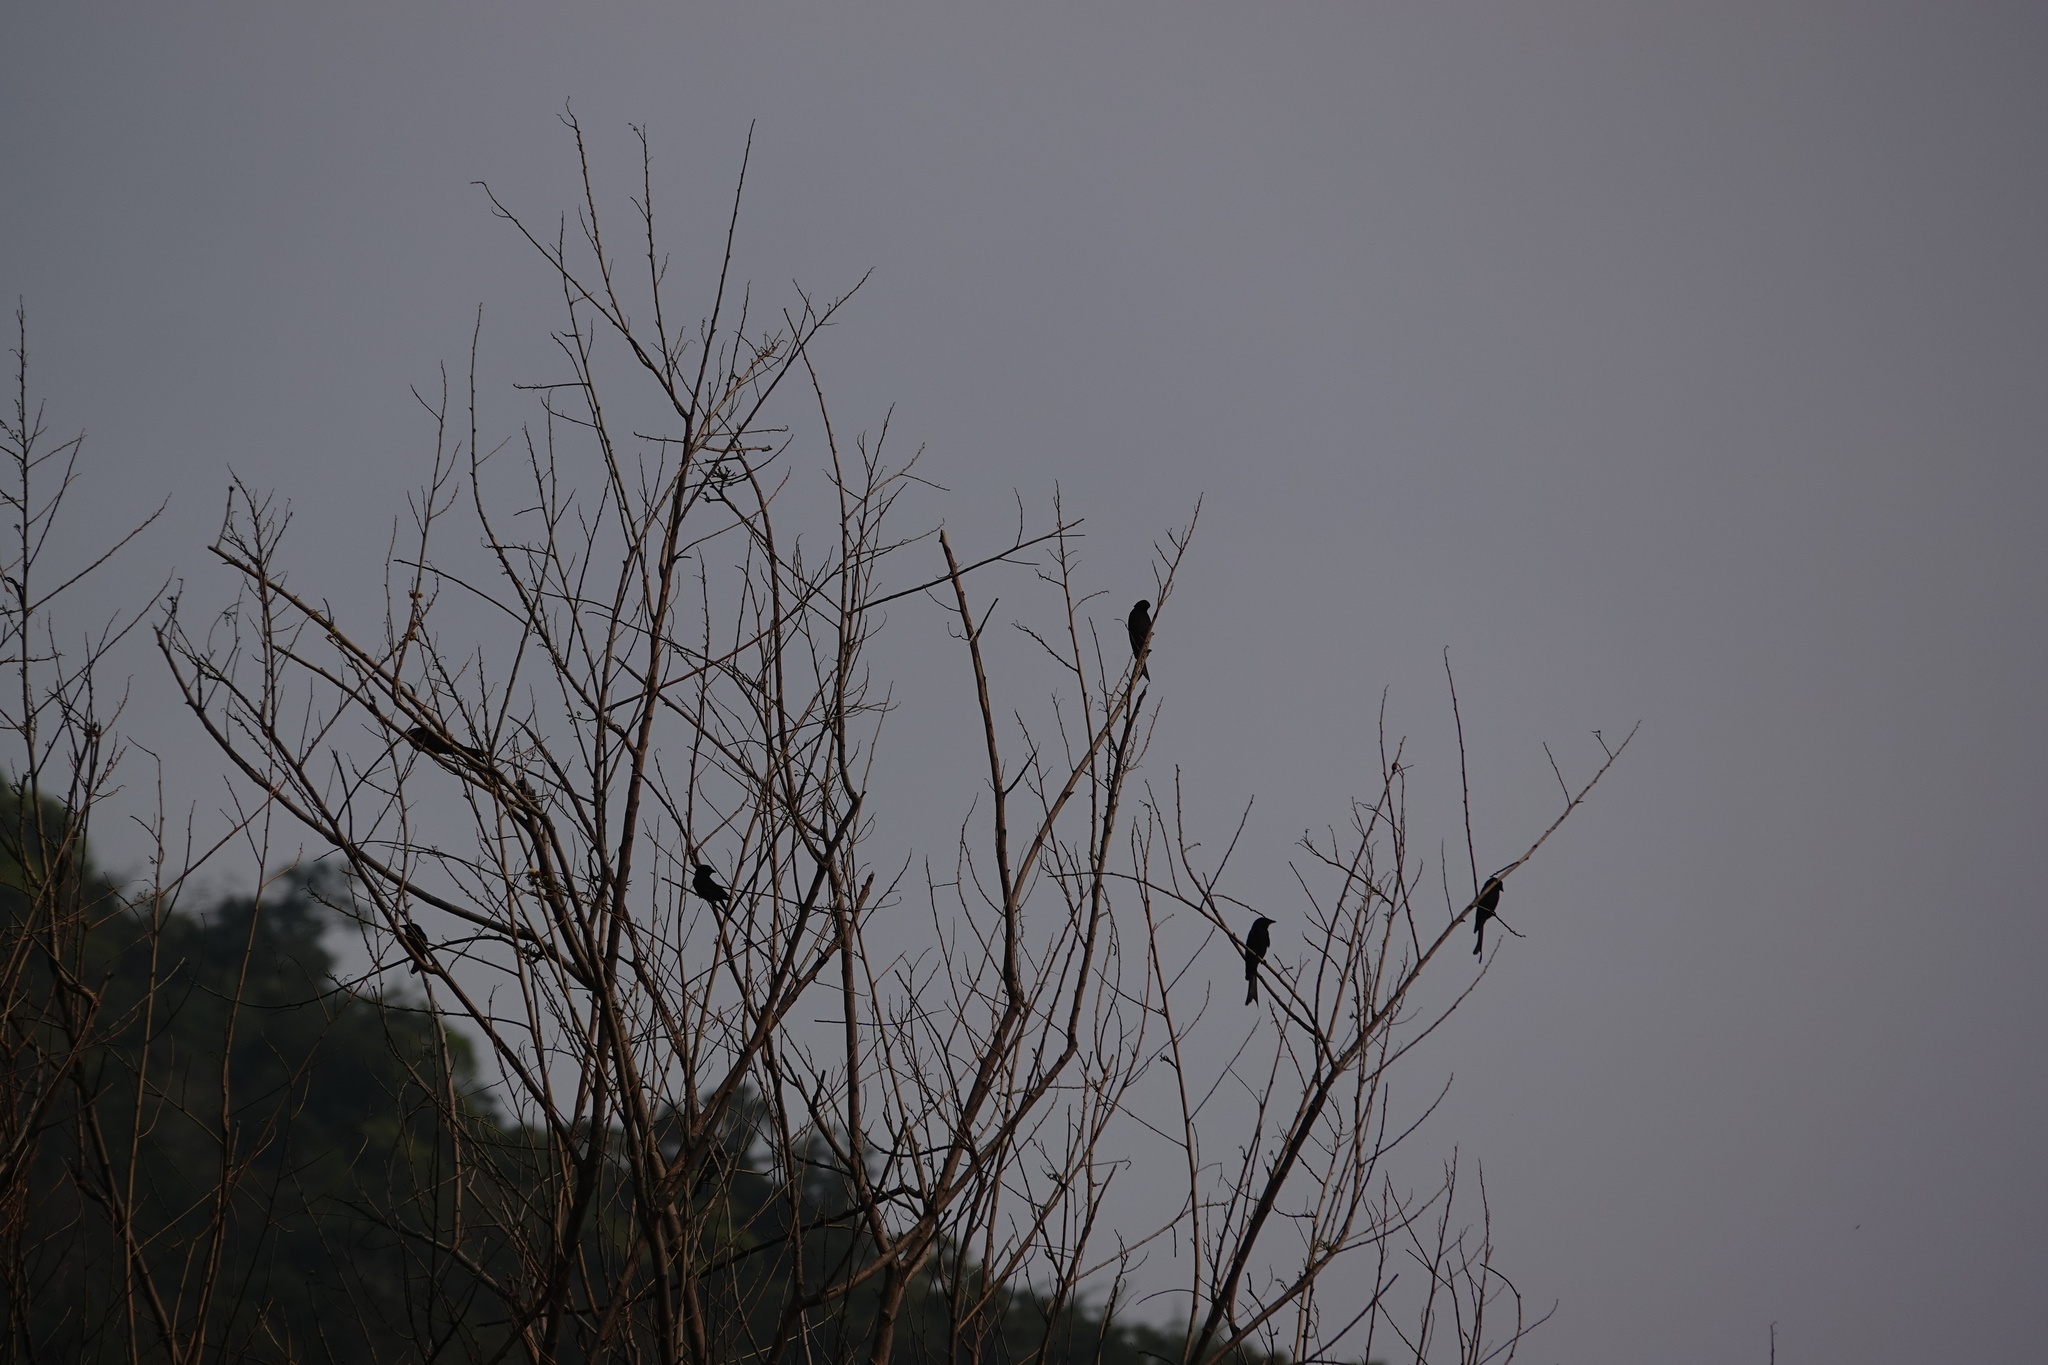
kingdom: Animalia
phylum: Chordata
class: Aves
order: Passeriformes
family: Dicruridae
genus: Dicrurus
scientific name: Dicrurus macrocercus
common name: Black drongo
